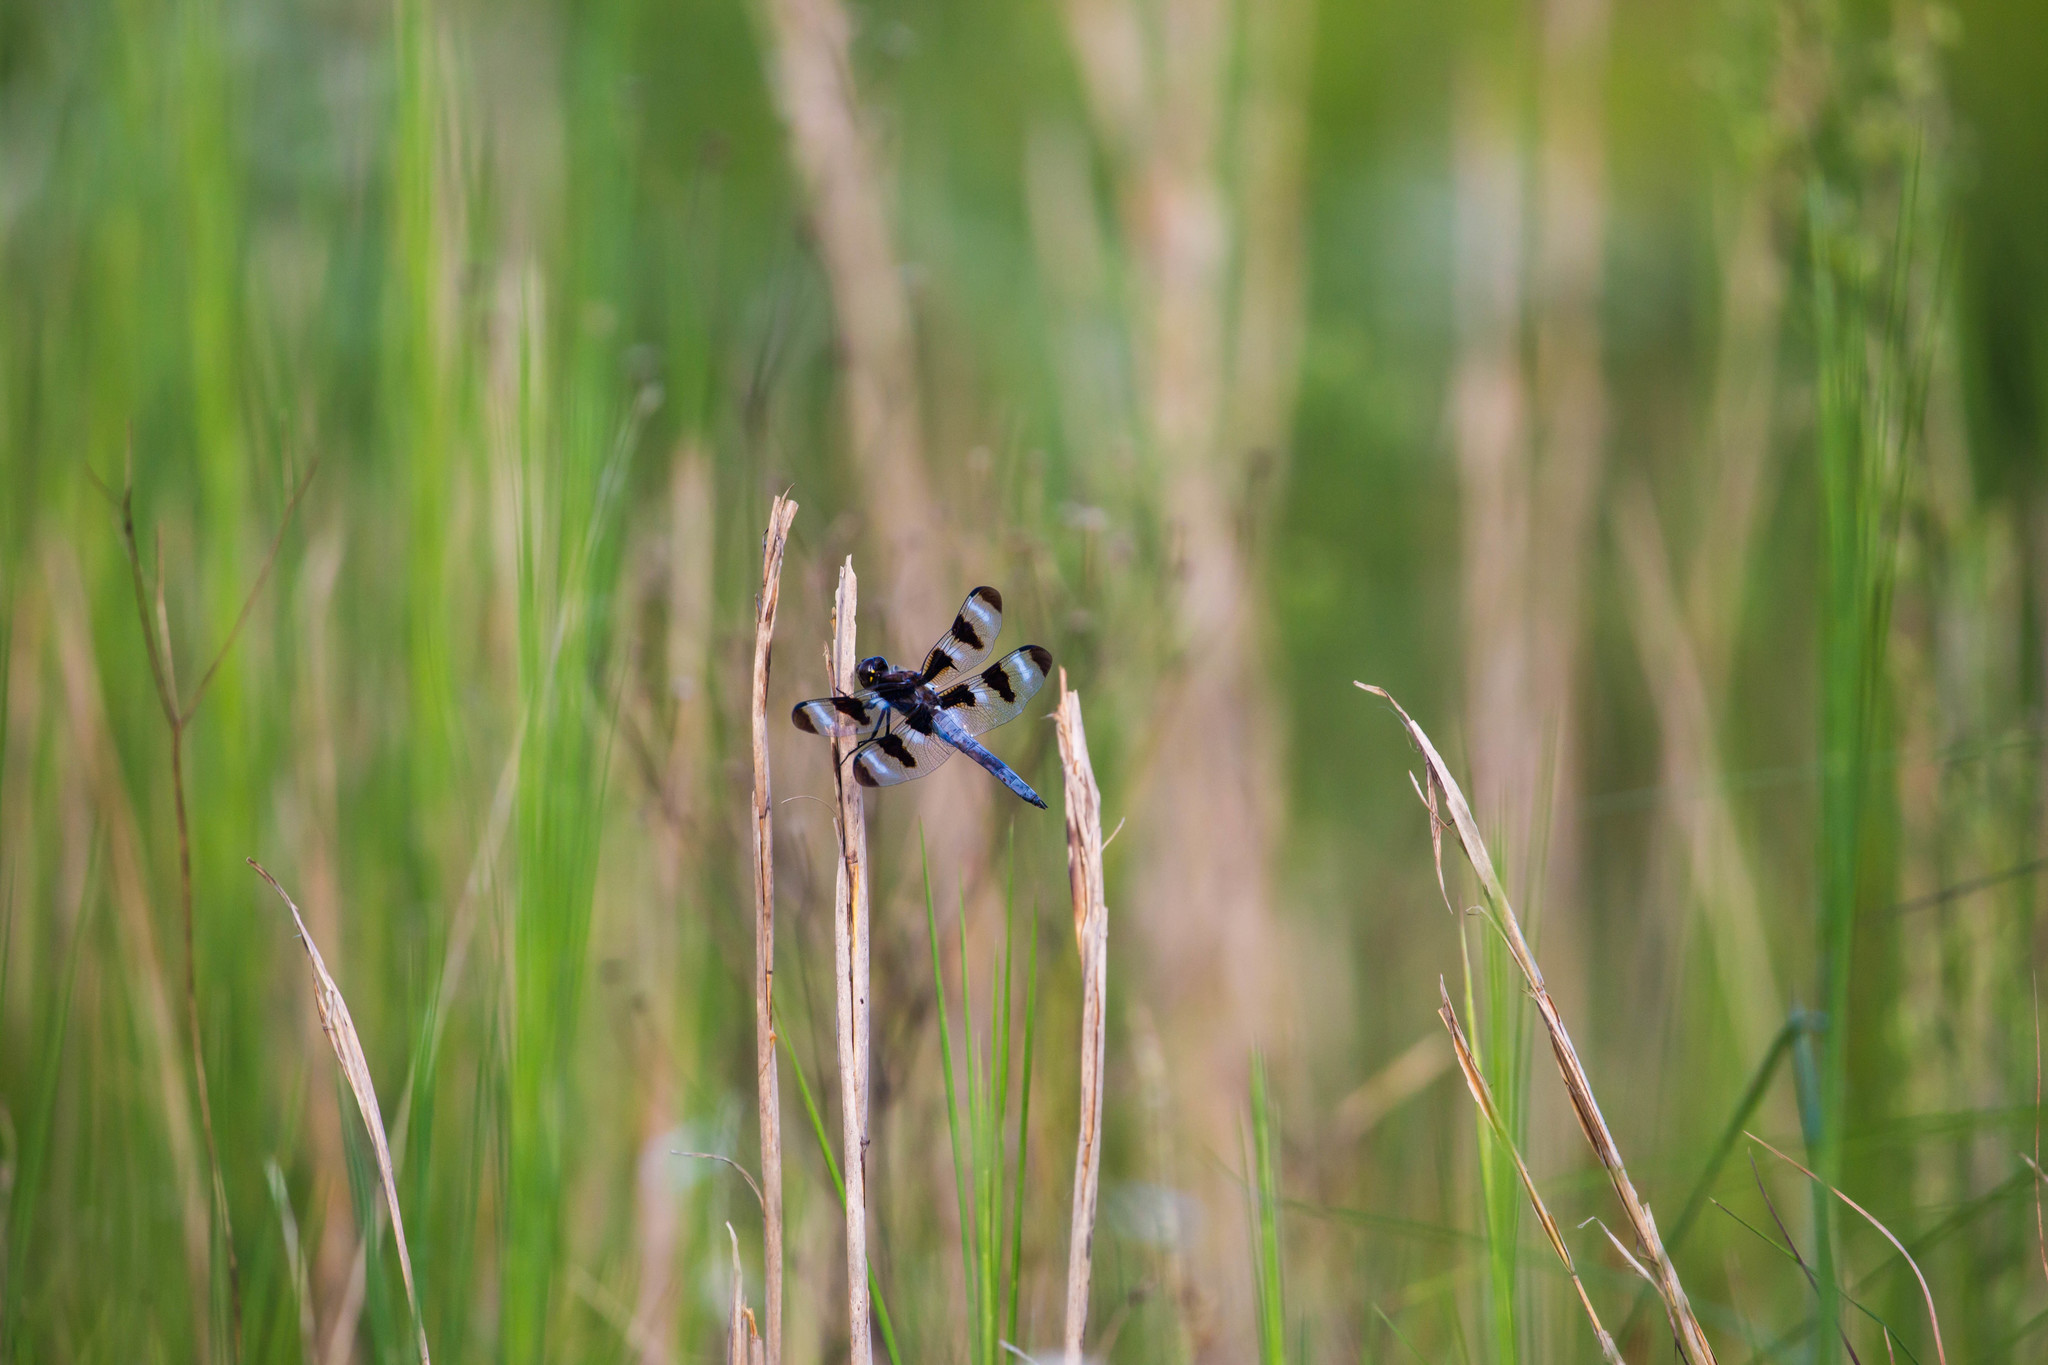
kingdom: Animalia
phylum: Arthropoda
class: Insecta
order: Odonata
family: Libellulidae
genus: Libellula
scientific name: Libellula pulchella
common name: Twelve-spotted skimmer
